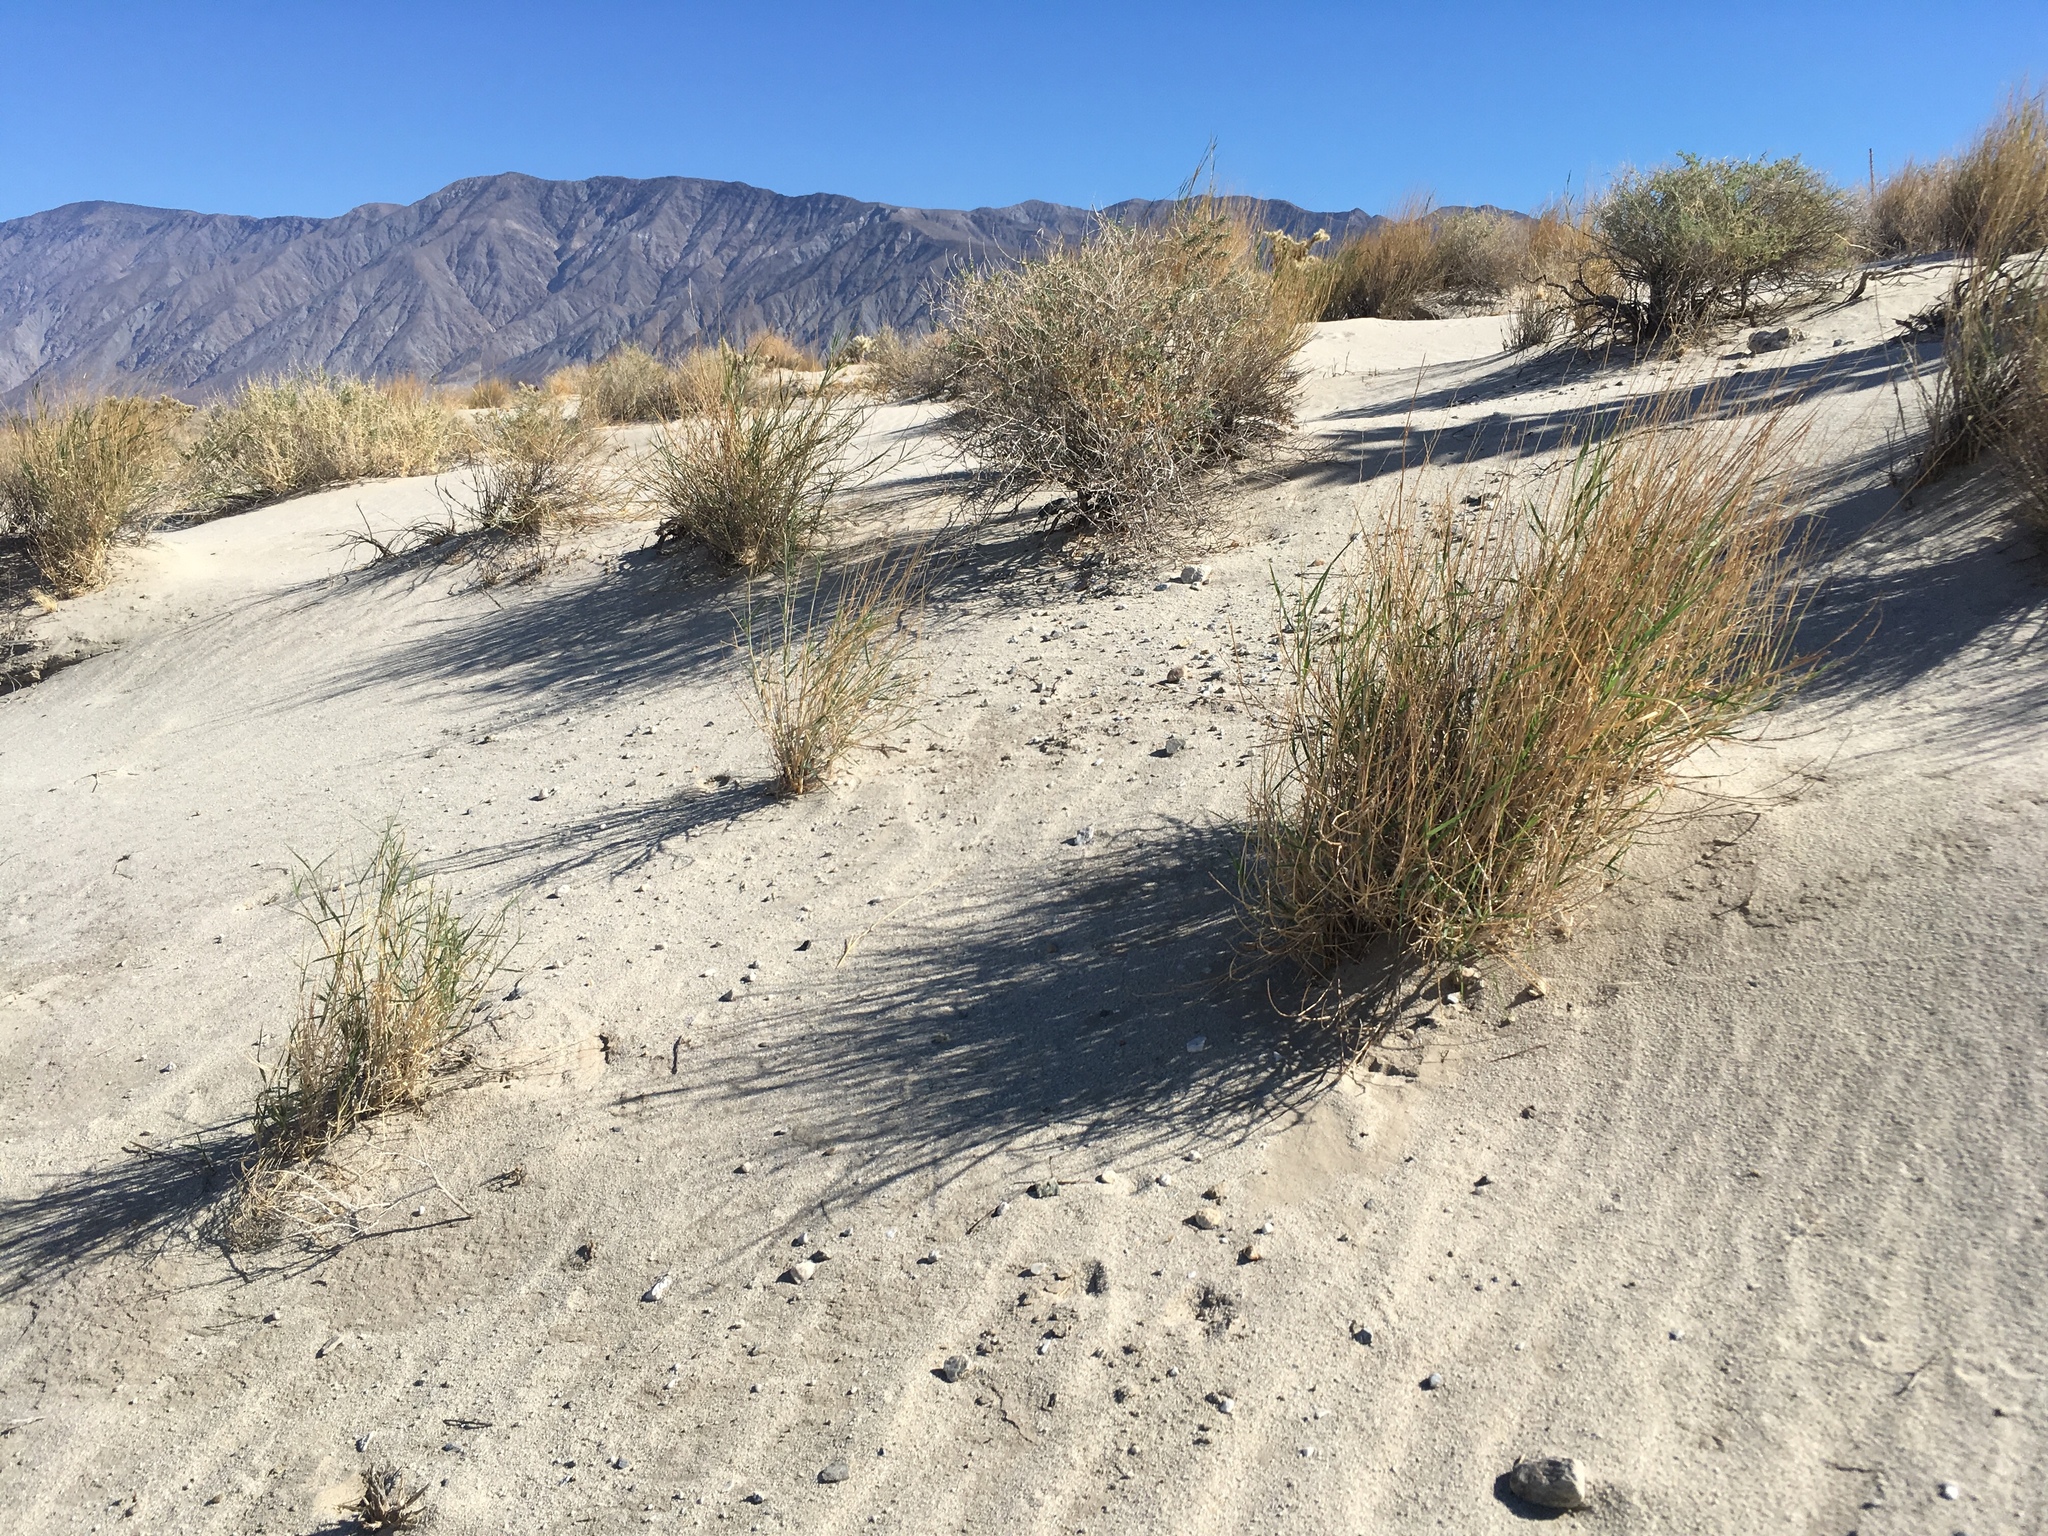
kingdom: Plantae
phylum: Tracheophyta
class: Liliopsida
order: Poales
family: Poaceae
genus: Hilaria
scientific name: Hilaria rigida
